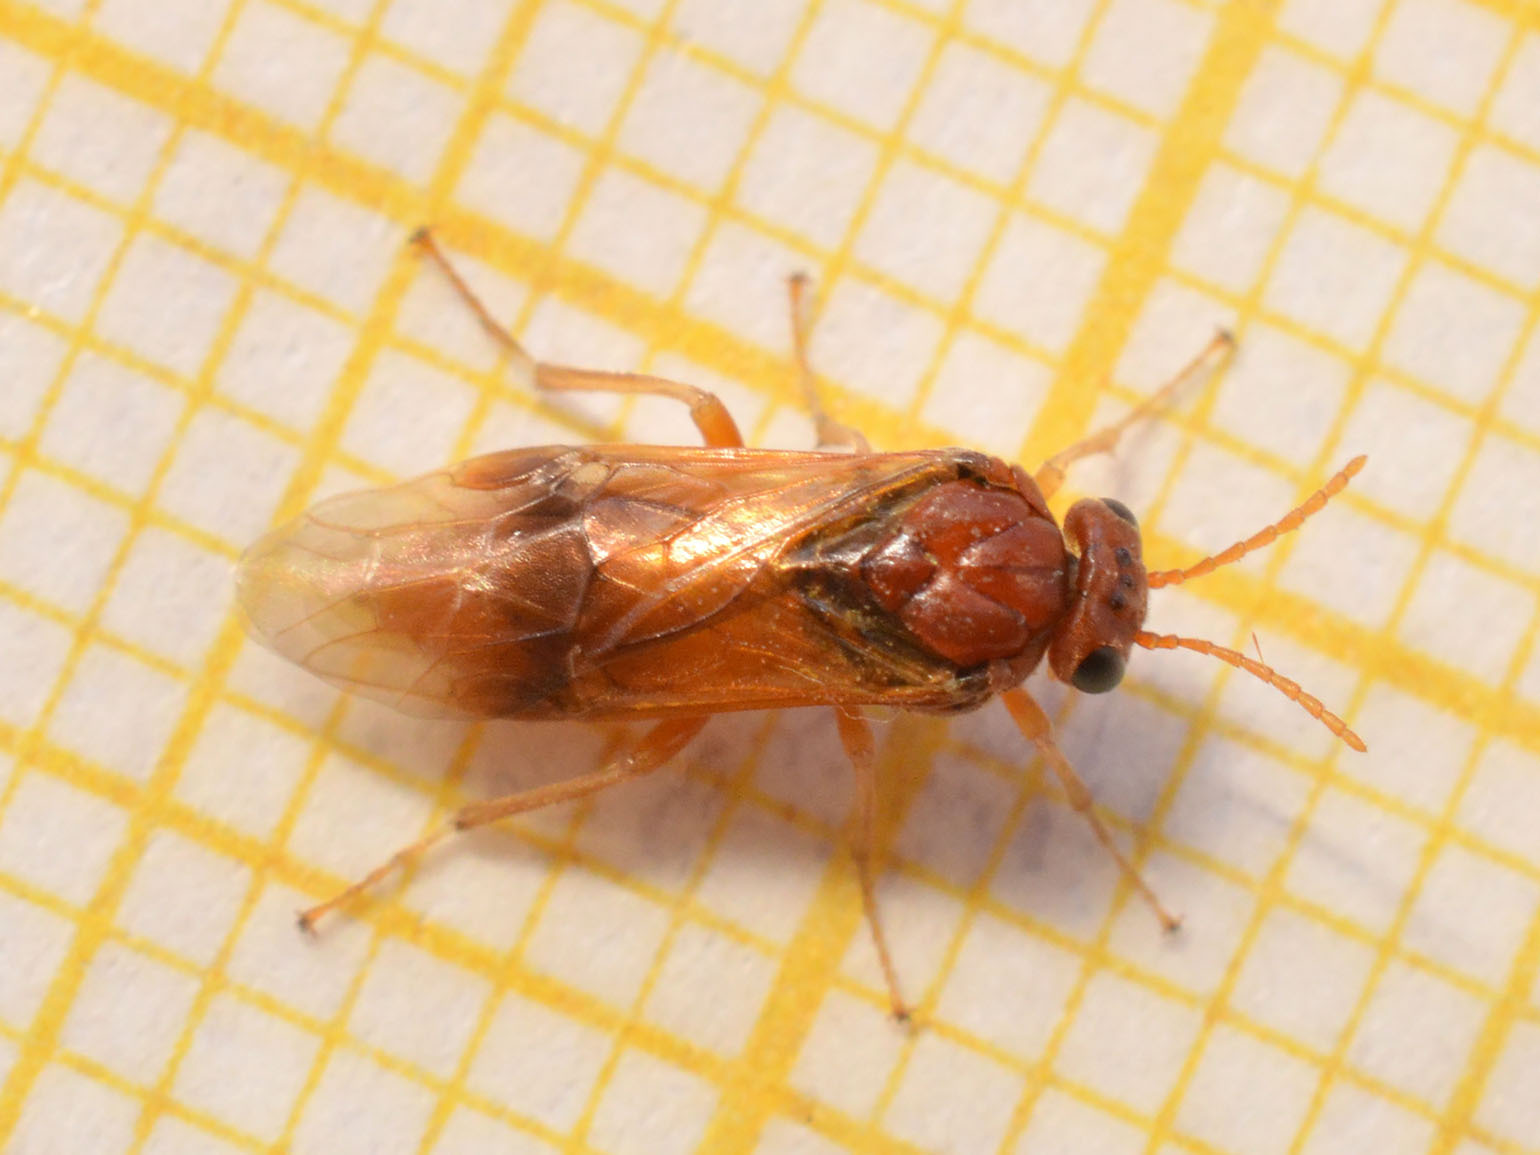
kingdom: Animalia
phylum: Arthropoda
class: Insecta
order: Hymenoptera
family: Tenthredinidae
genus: Hoplocampa
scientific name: Hoplocampa flava
